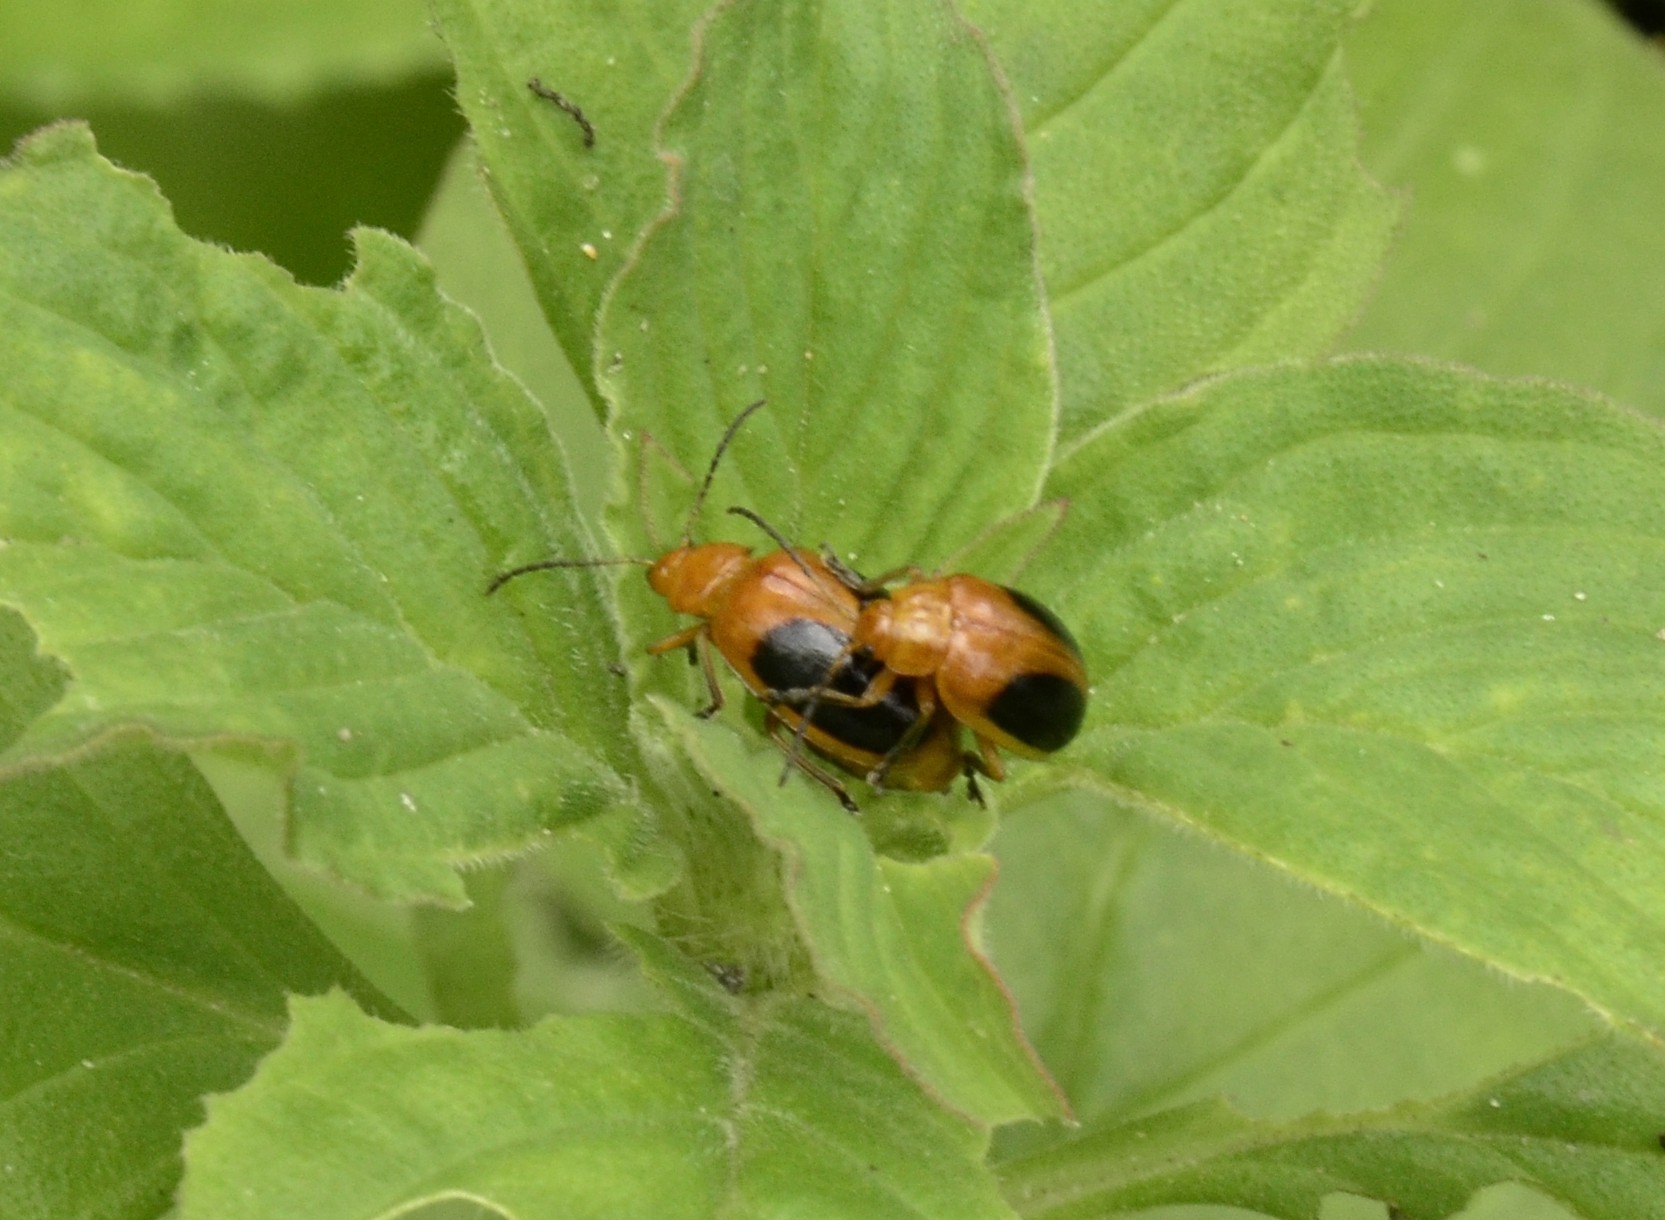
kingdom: Animalia
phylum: Arthropoda
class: Insecta
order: Coleoptera
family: Chrysomelidae
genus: Oides
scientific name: Oides affinis
